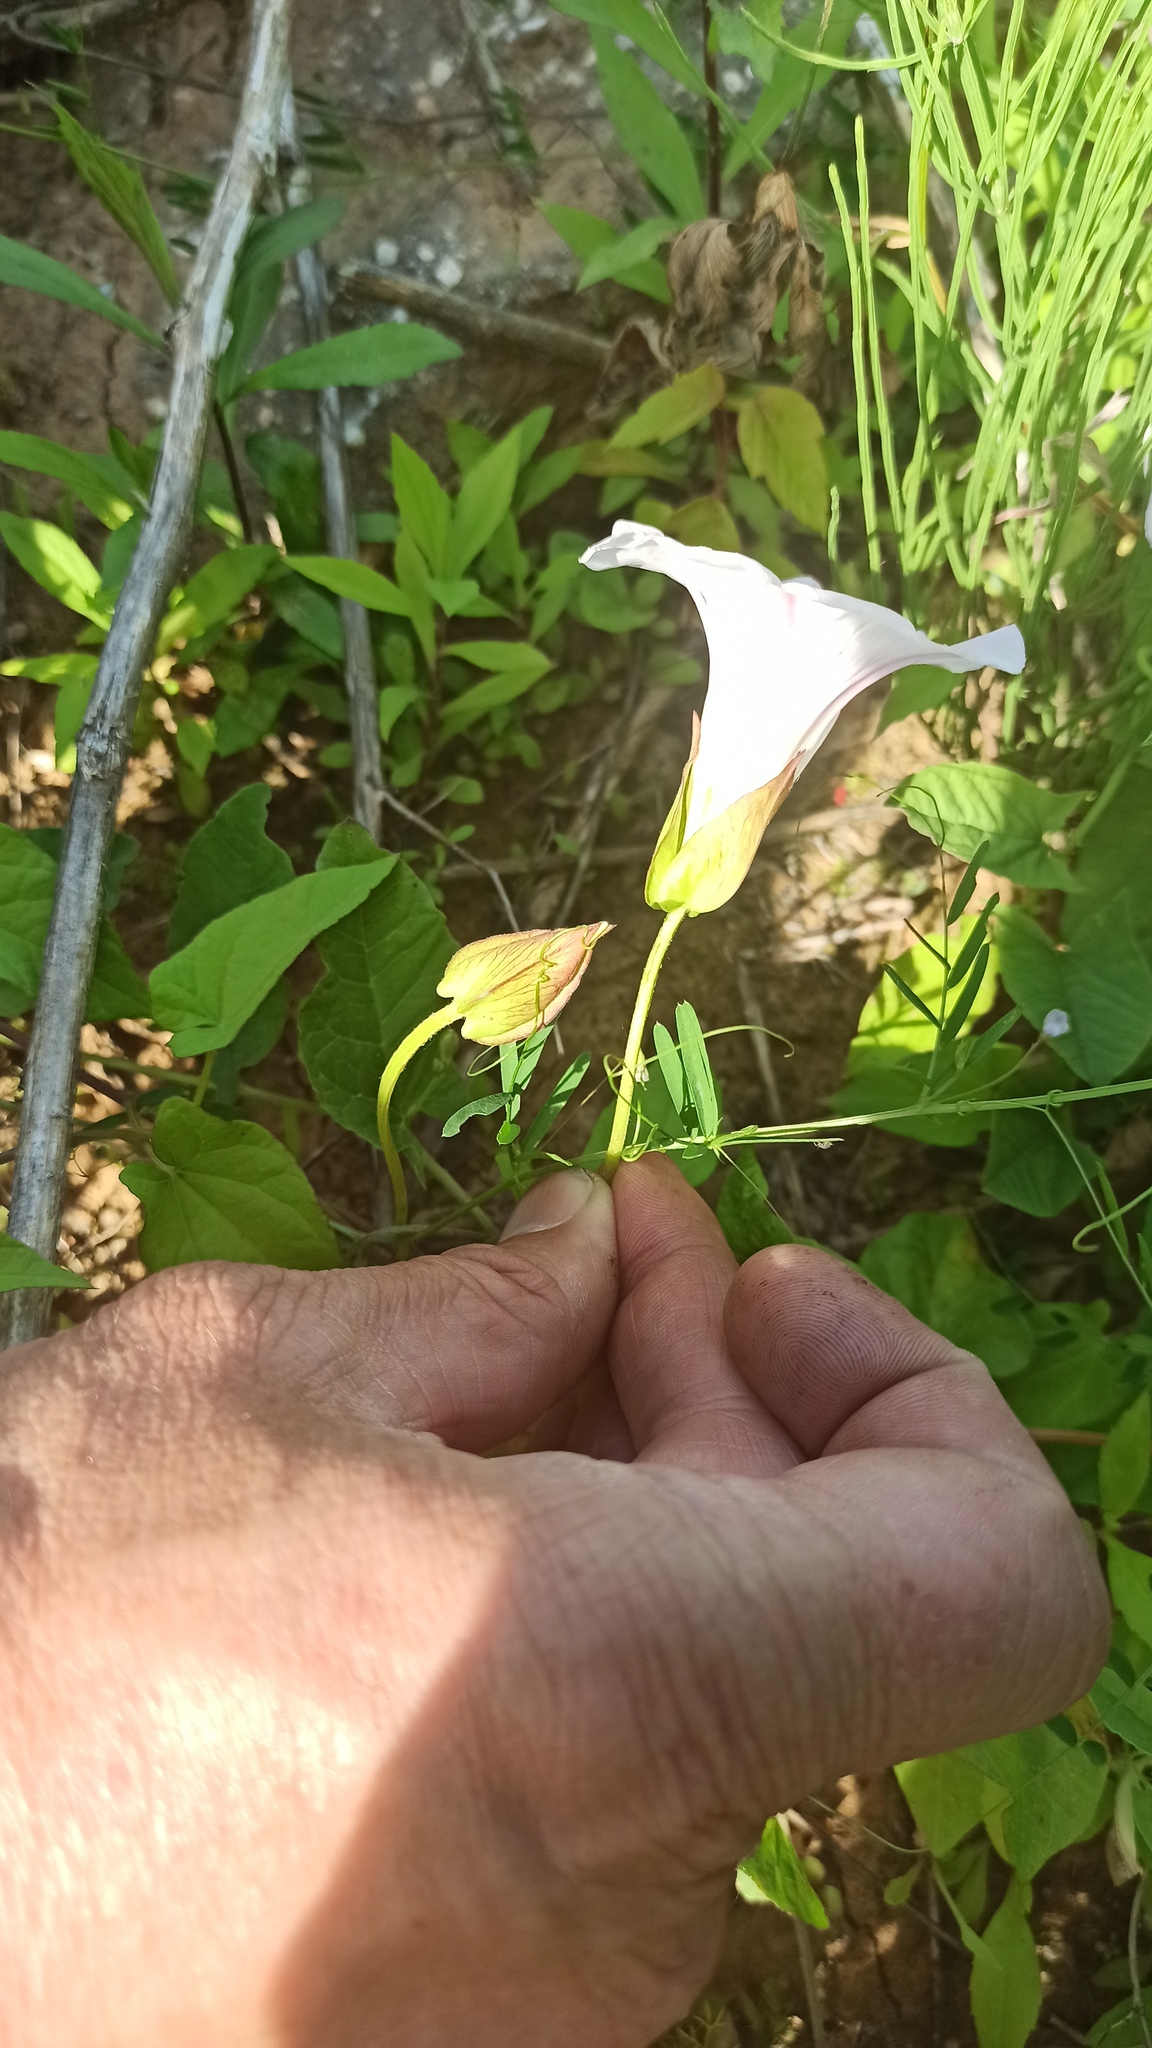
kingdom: Plantae
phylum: Tracheophyta
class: Magnoliopsida
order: Solanales
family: Convolvulaceae
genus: Calystegia
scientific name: Calystegia sepium
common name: Hedge bindweed
